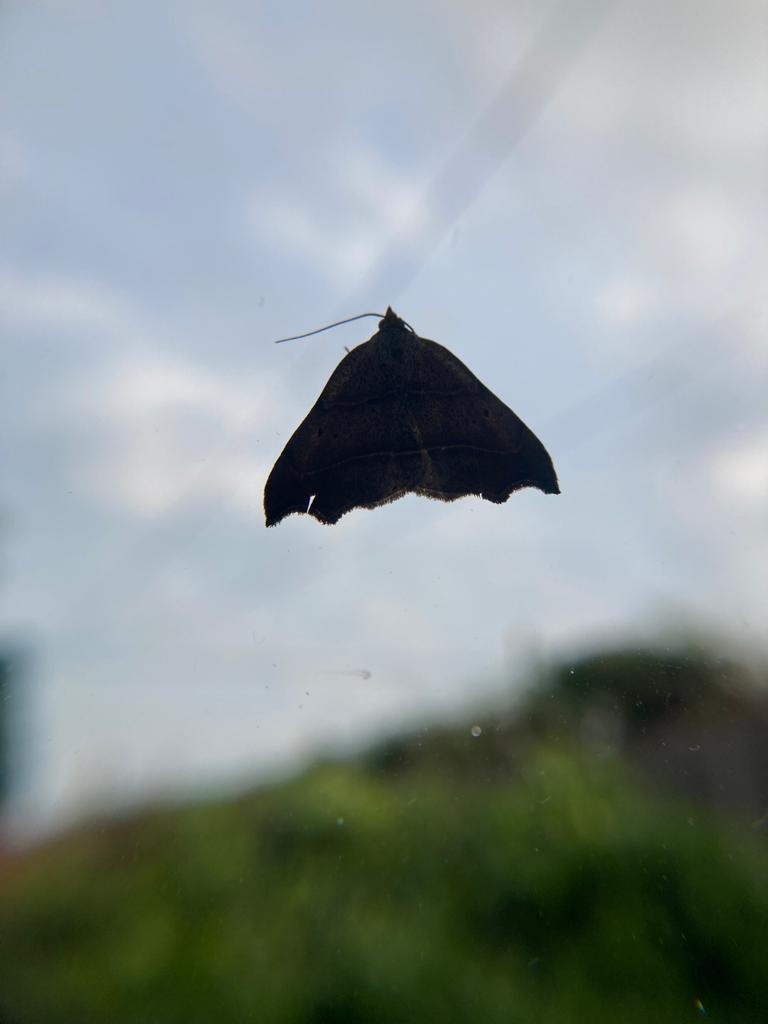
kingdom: Animalia
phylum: Arthropoda
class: Insecta
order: Lepidoptera
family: Erebidae
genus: Laspeyria
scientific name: Laspeyria flexula
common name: Beautiful hook-tip
